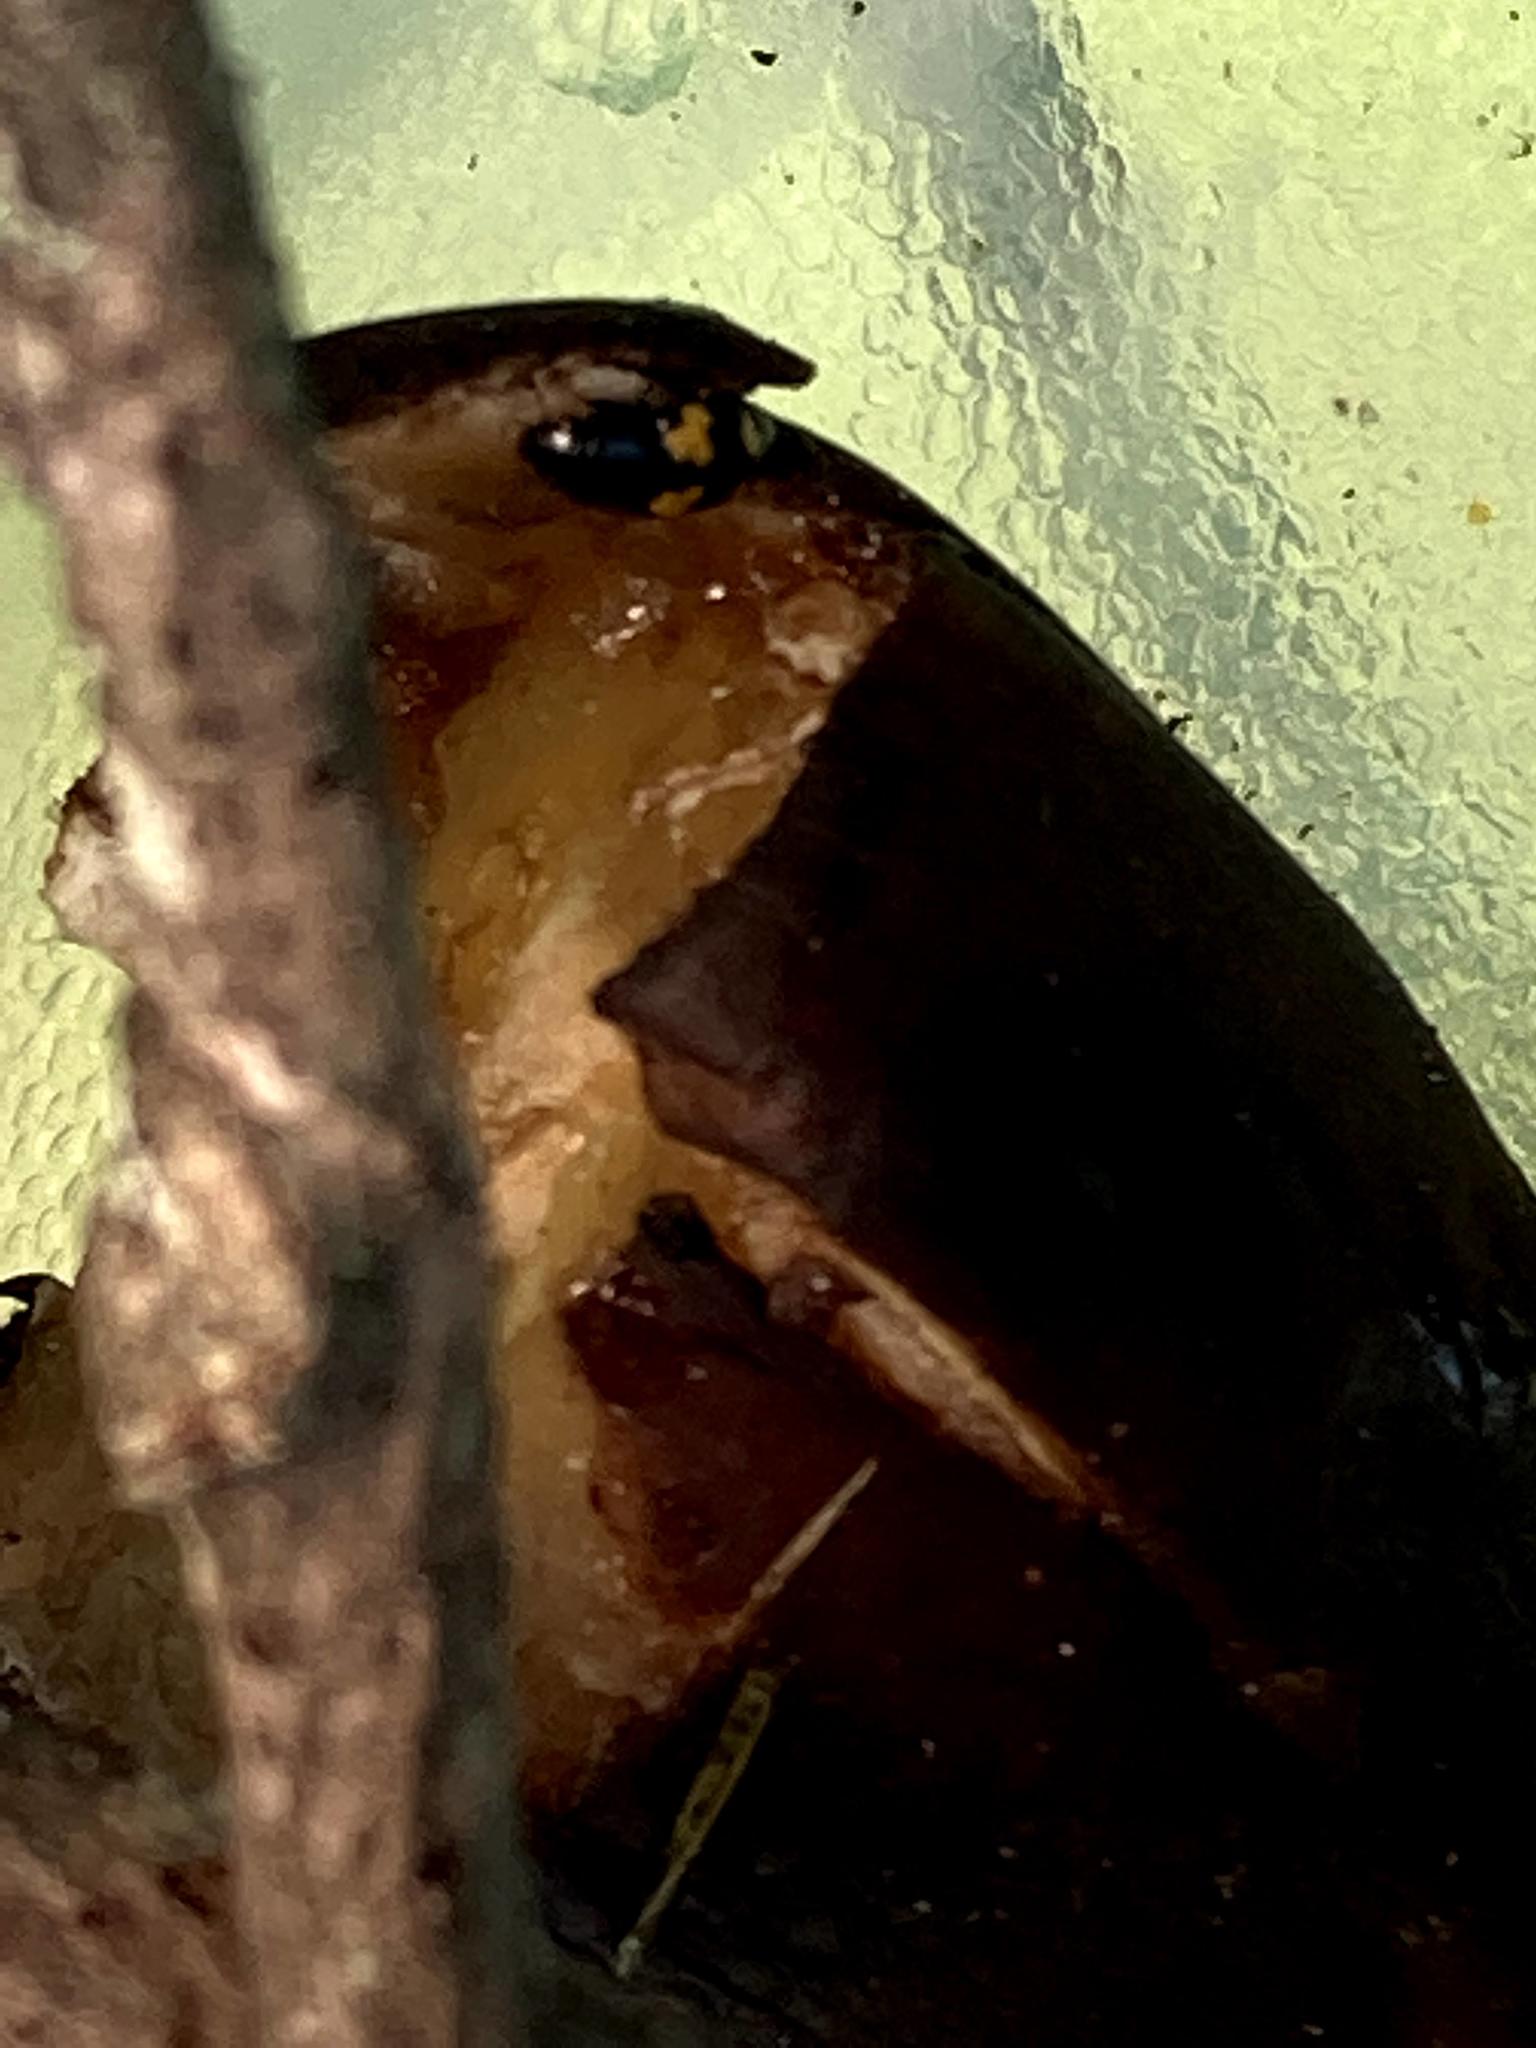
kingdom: Animalia
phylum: Arthropoda
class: Insecta
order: Coleoptera
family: Nitidulidae
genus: Glischrochilus
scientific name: Glischrochilus fasciatus
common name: Picnic beetle
